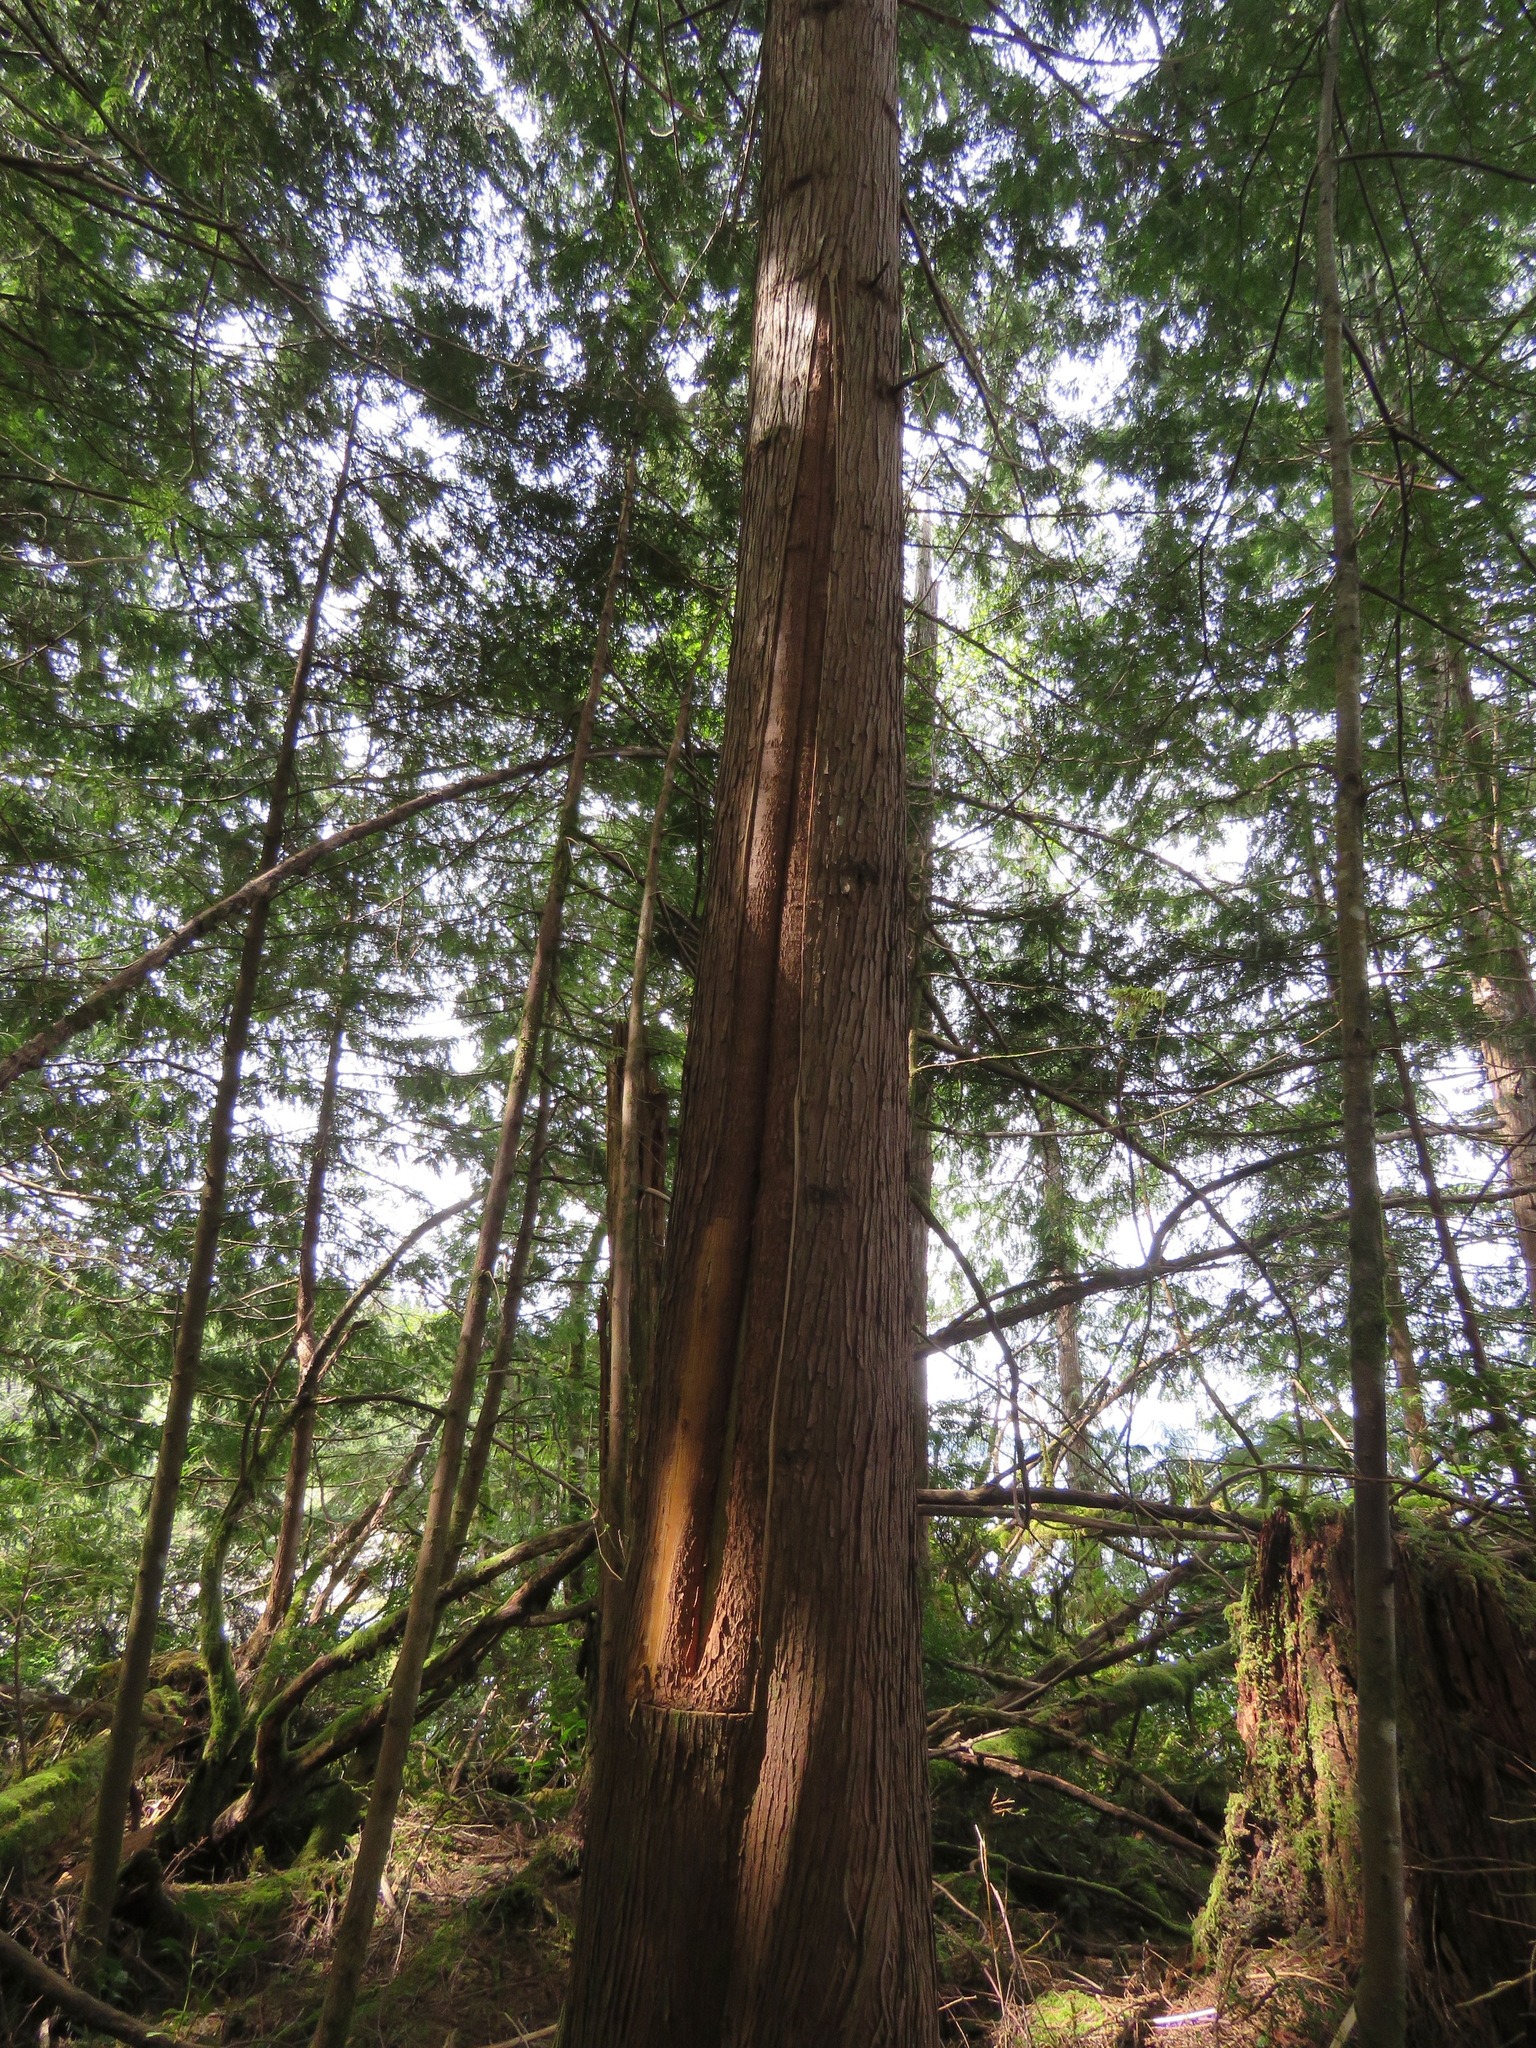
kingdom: Plantae
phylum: Tracheophyta
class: Pinopsida
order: Pinales
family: Cupressaceae
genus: Thuja
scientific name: Thuja plicata
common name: Western red-cedar
